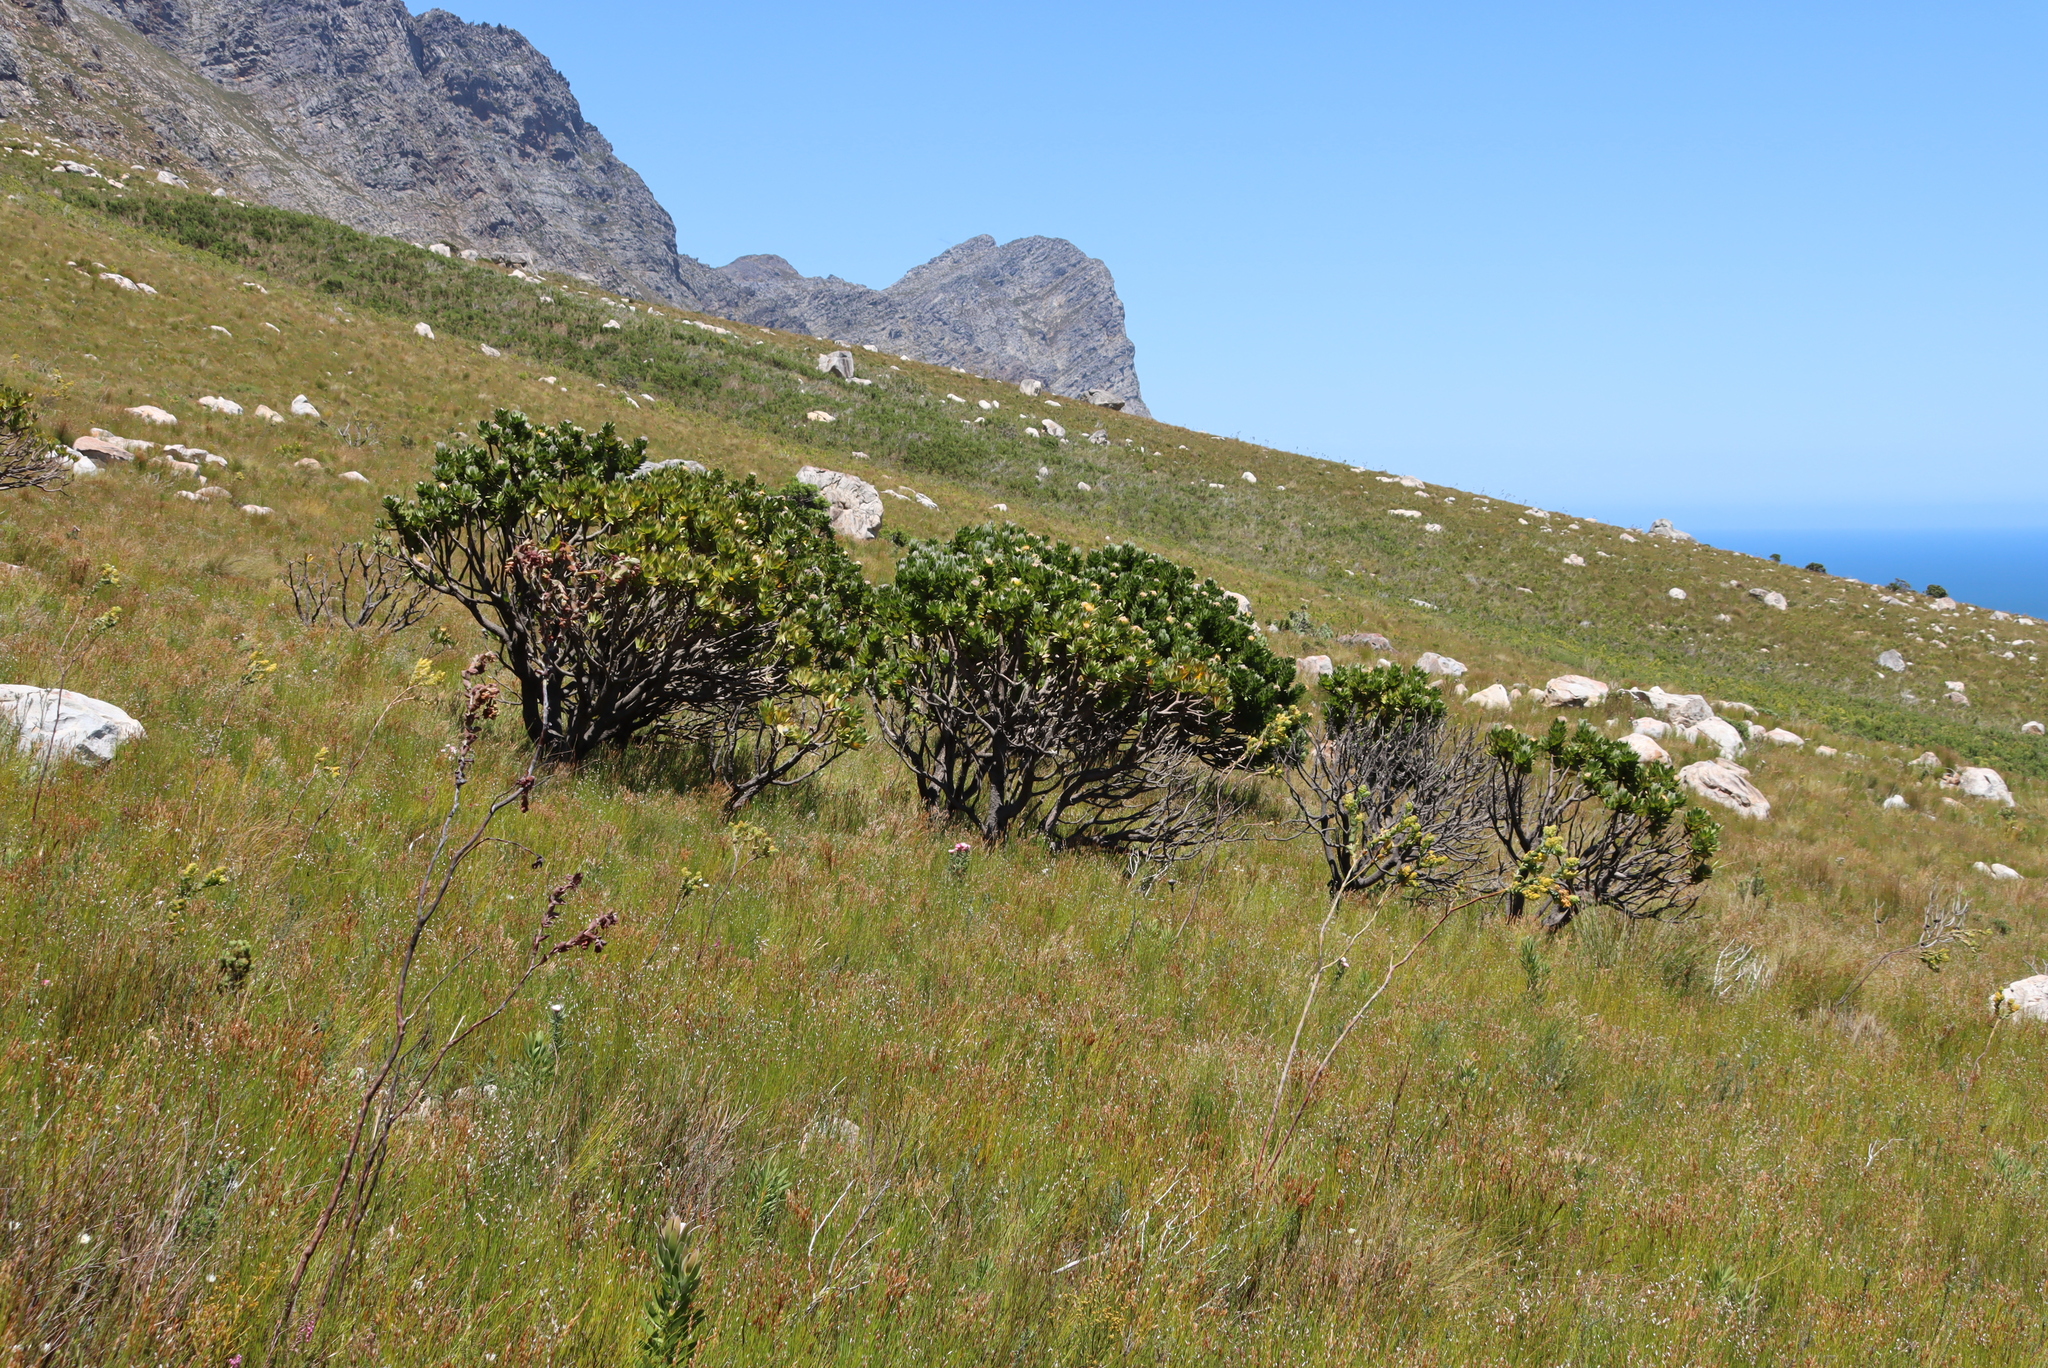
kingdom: Plantae
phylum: Tracheophyta
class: Magnoliopsida
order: Proteales
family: Proteaceae
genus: Leucospermum
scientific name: Leucospermum conocarpodendron
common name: Tree pincushion
